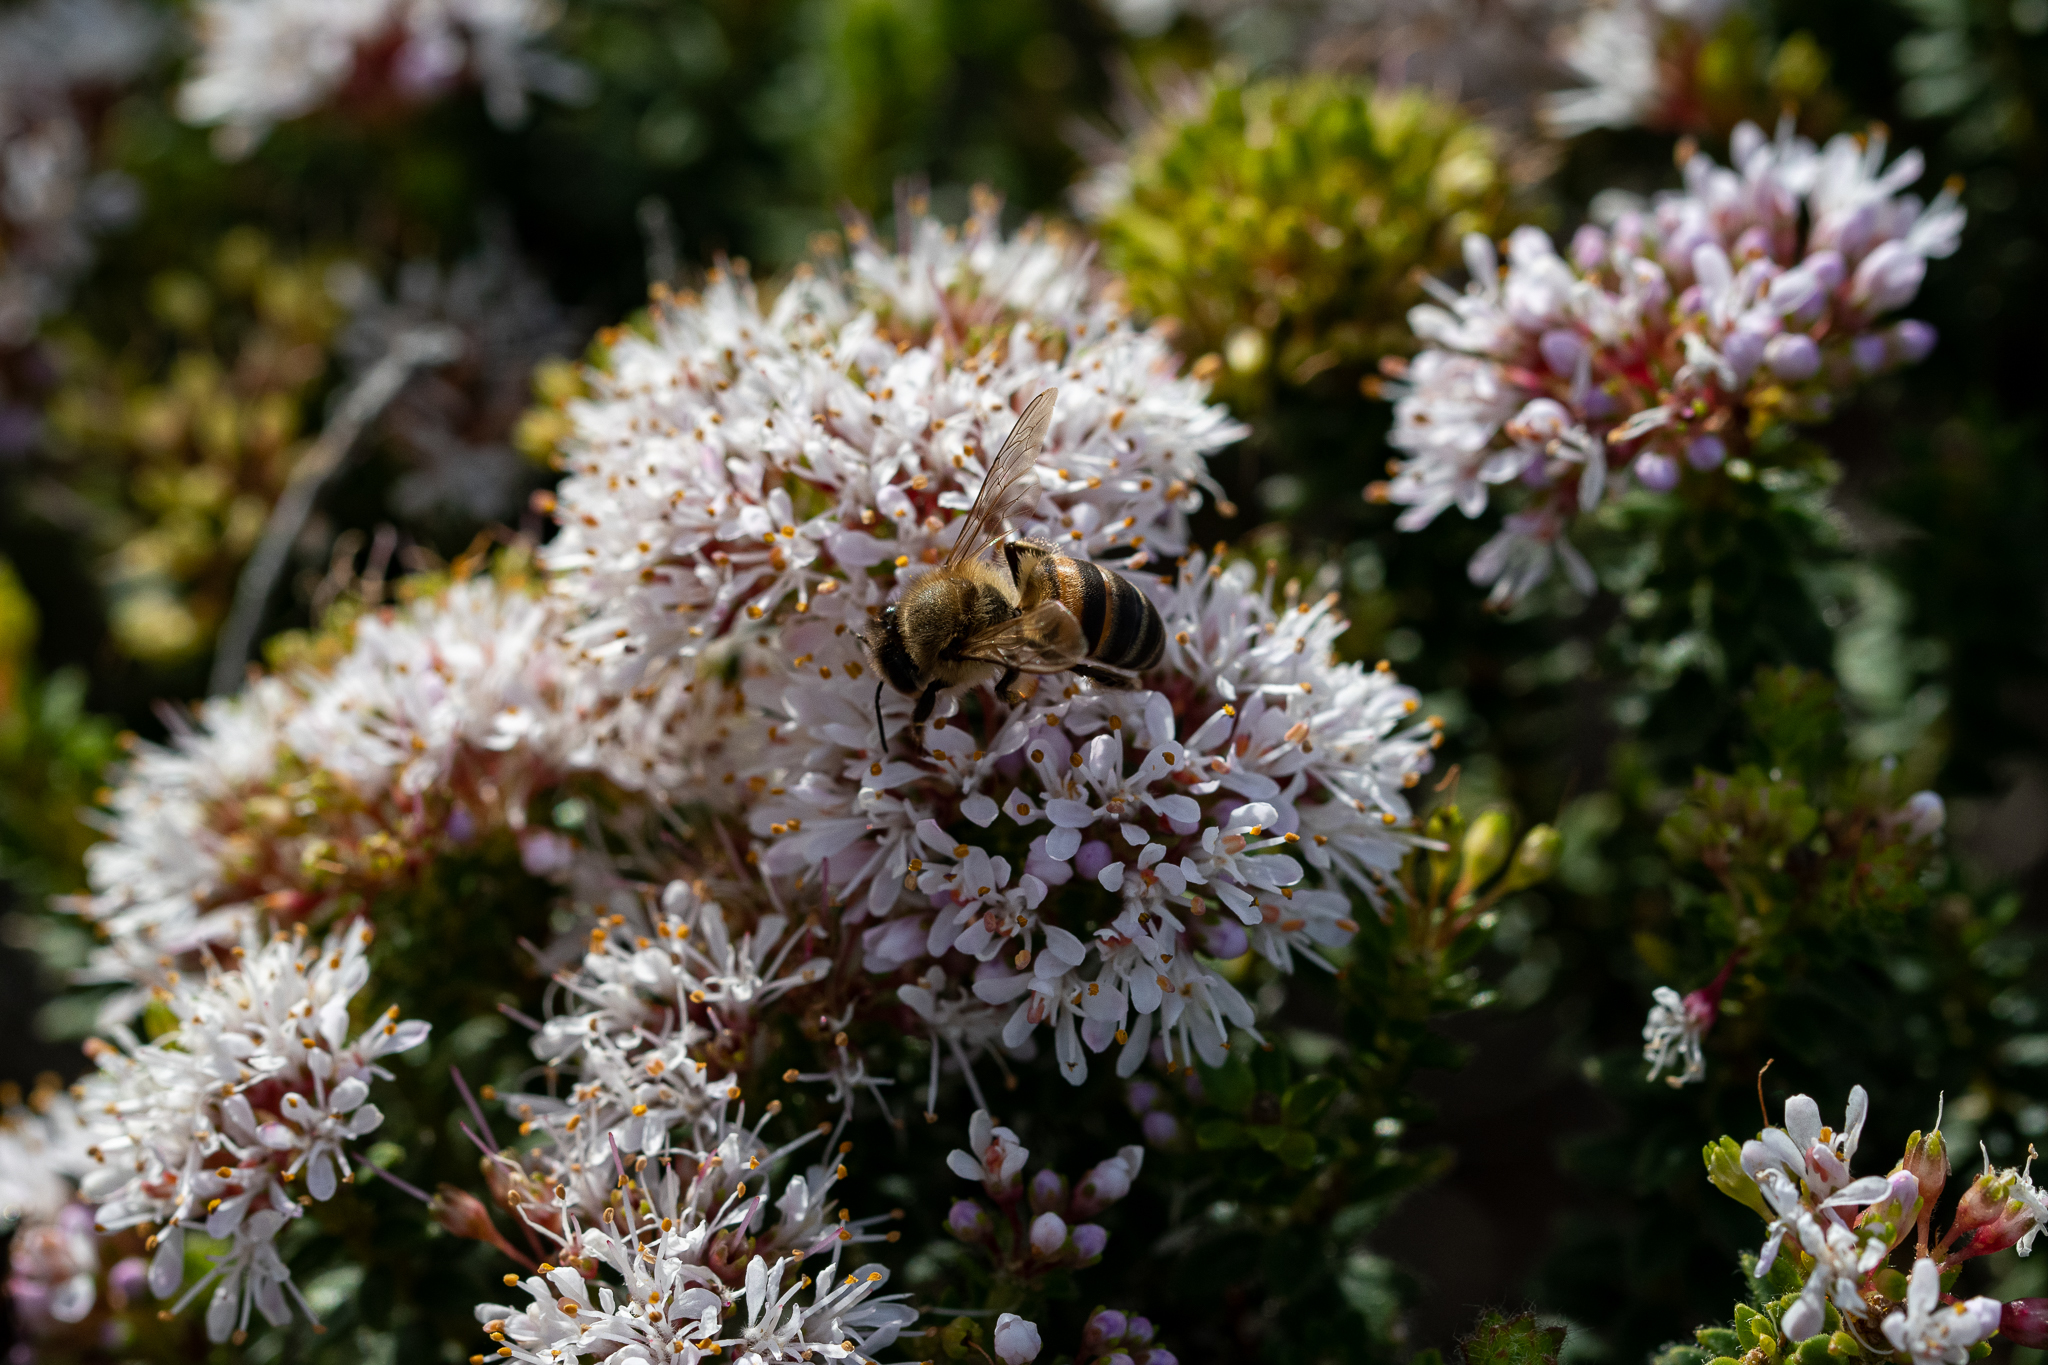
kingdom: Animalia
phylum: Arthropoda
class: Insecta
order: Hymenoptera
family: Apidae
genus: Apis
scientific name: Apis mellifera
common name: Honey bee
